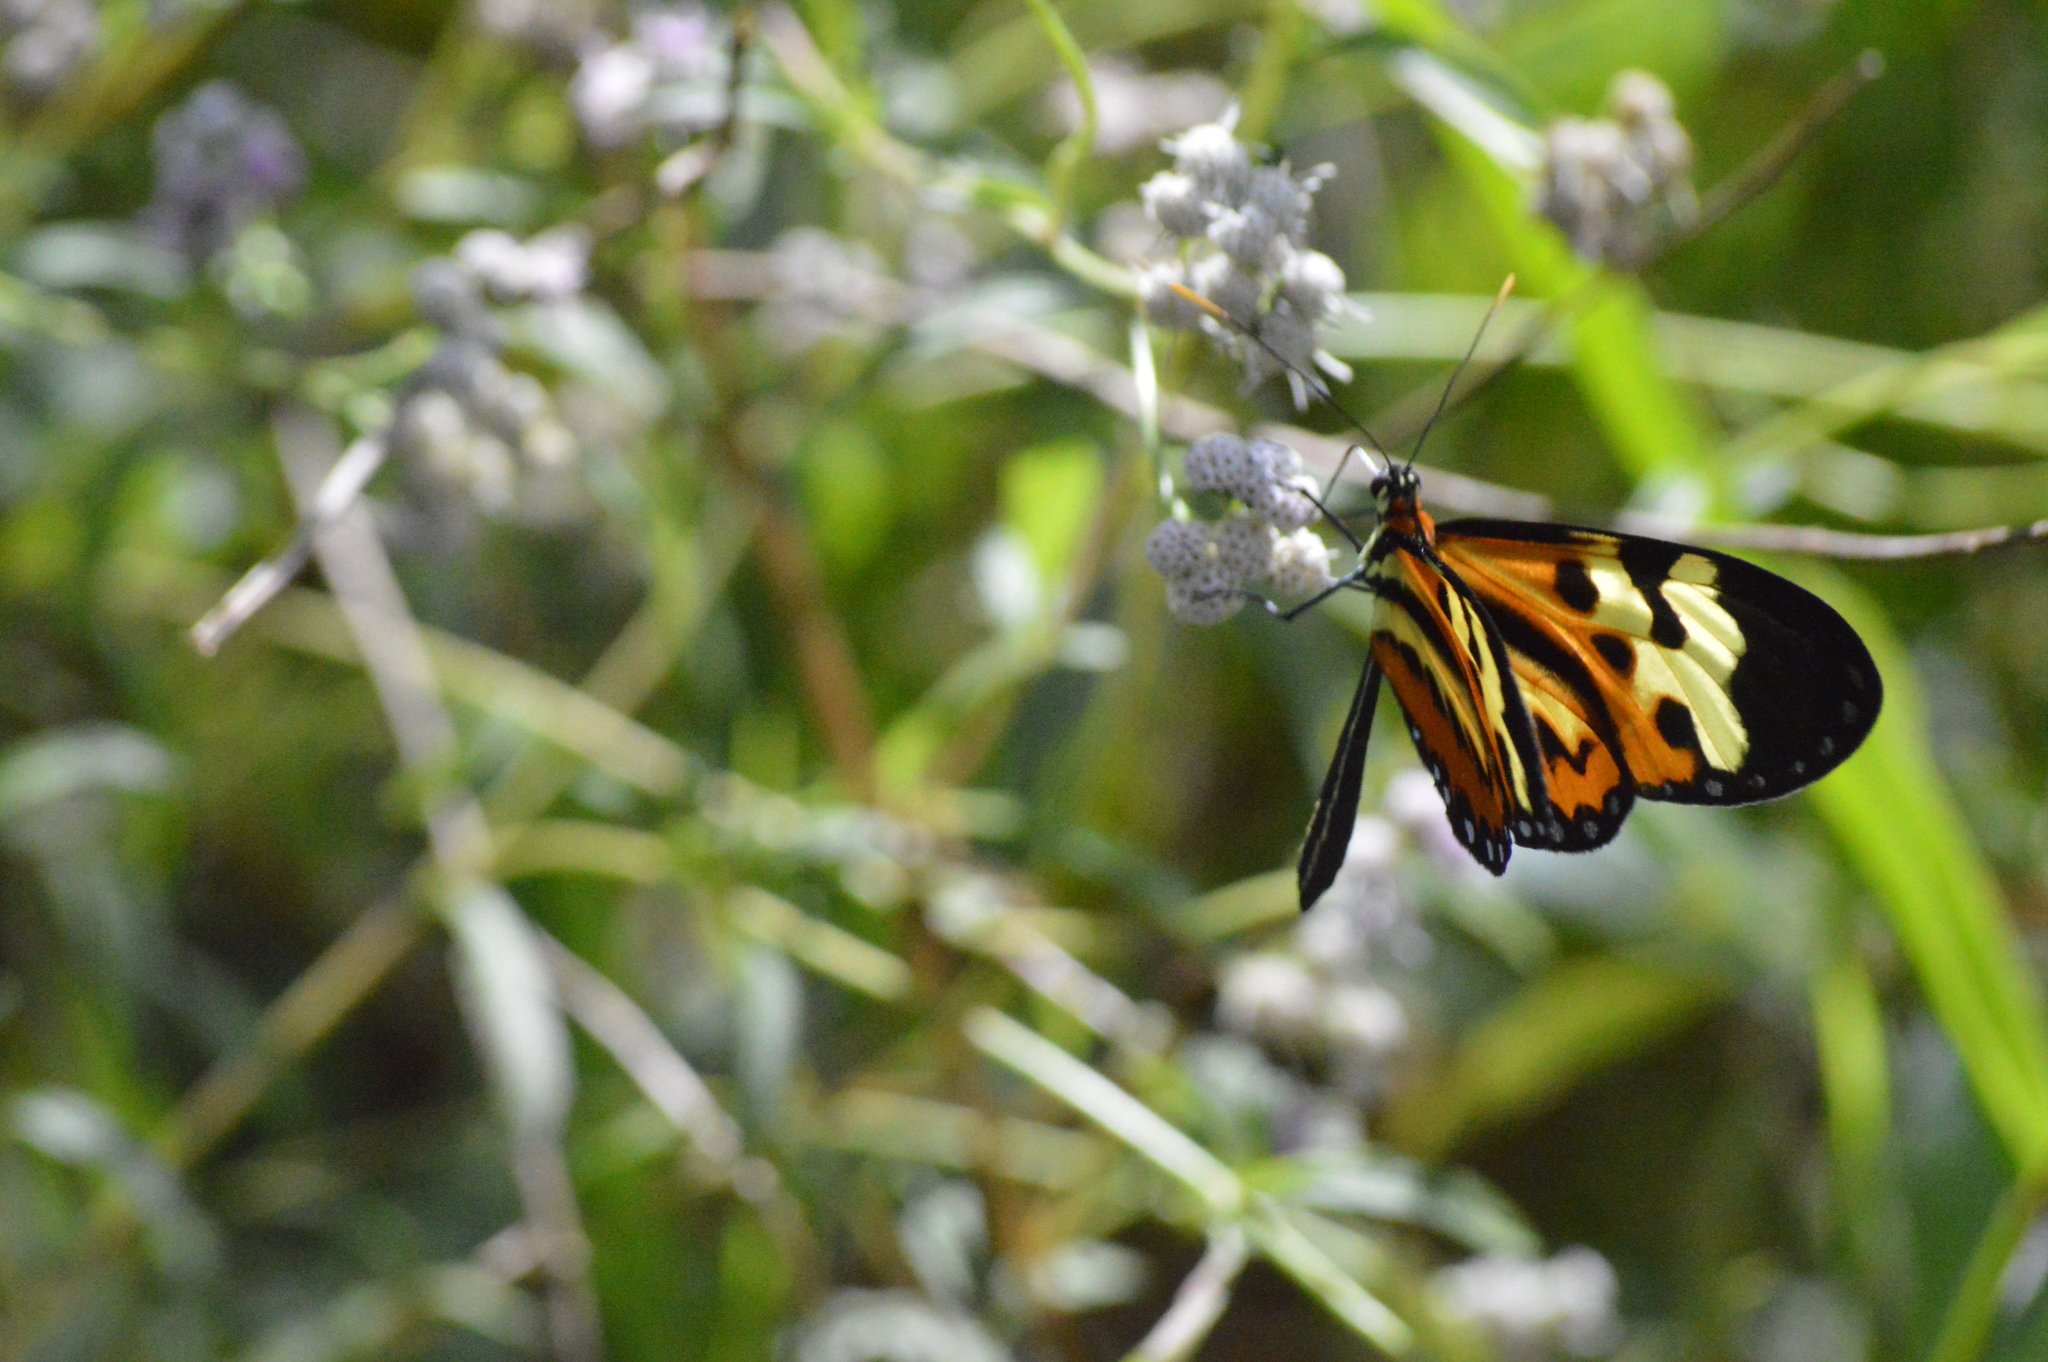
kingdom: Animalia
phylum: Arthropoda
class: Insecta
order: Lepidoptera
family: Nymphalidae
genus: Mechanitis
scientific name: Mechanitis polymnia
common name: Disturbed tigerwing
